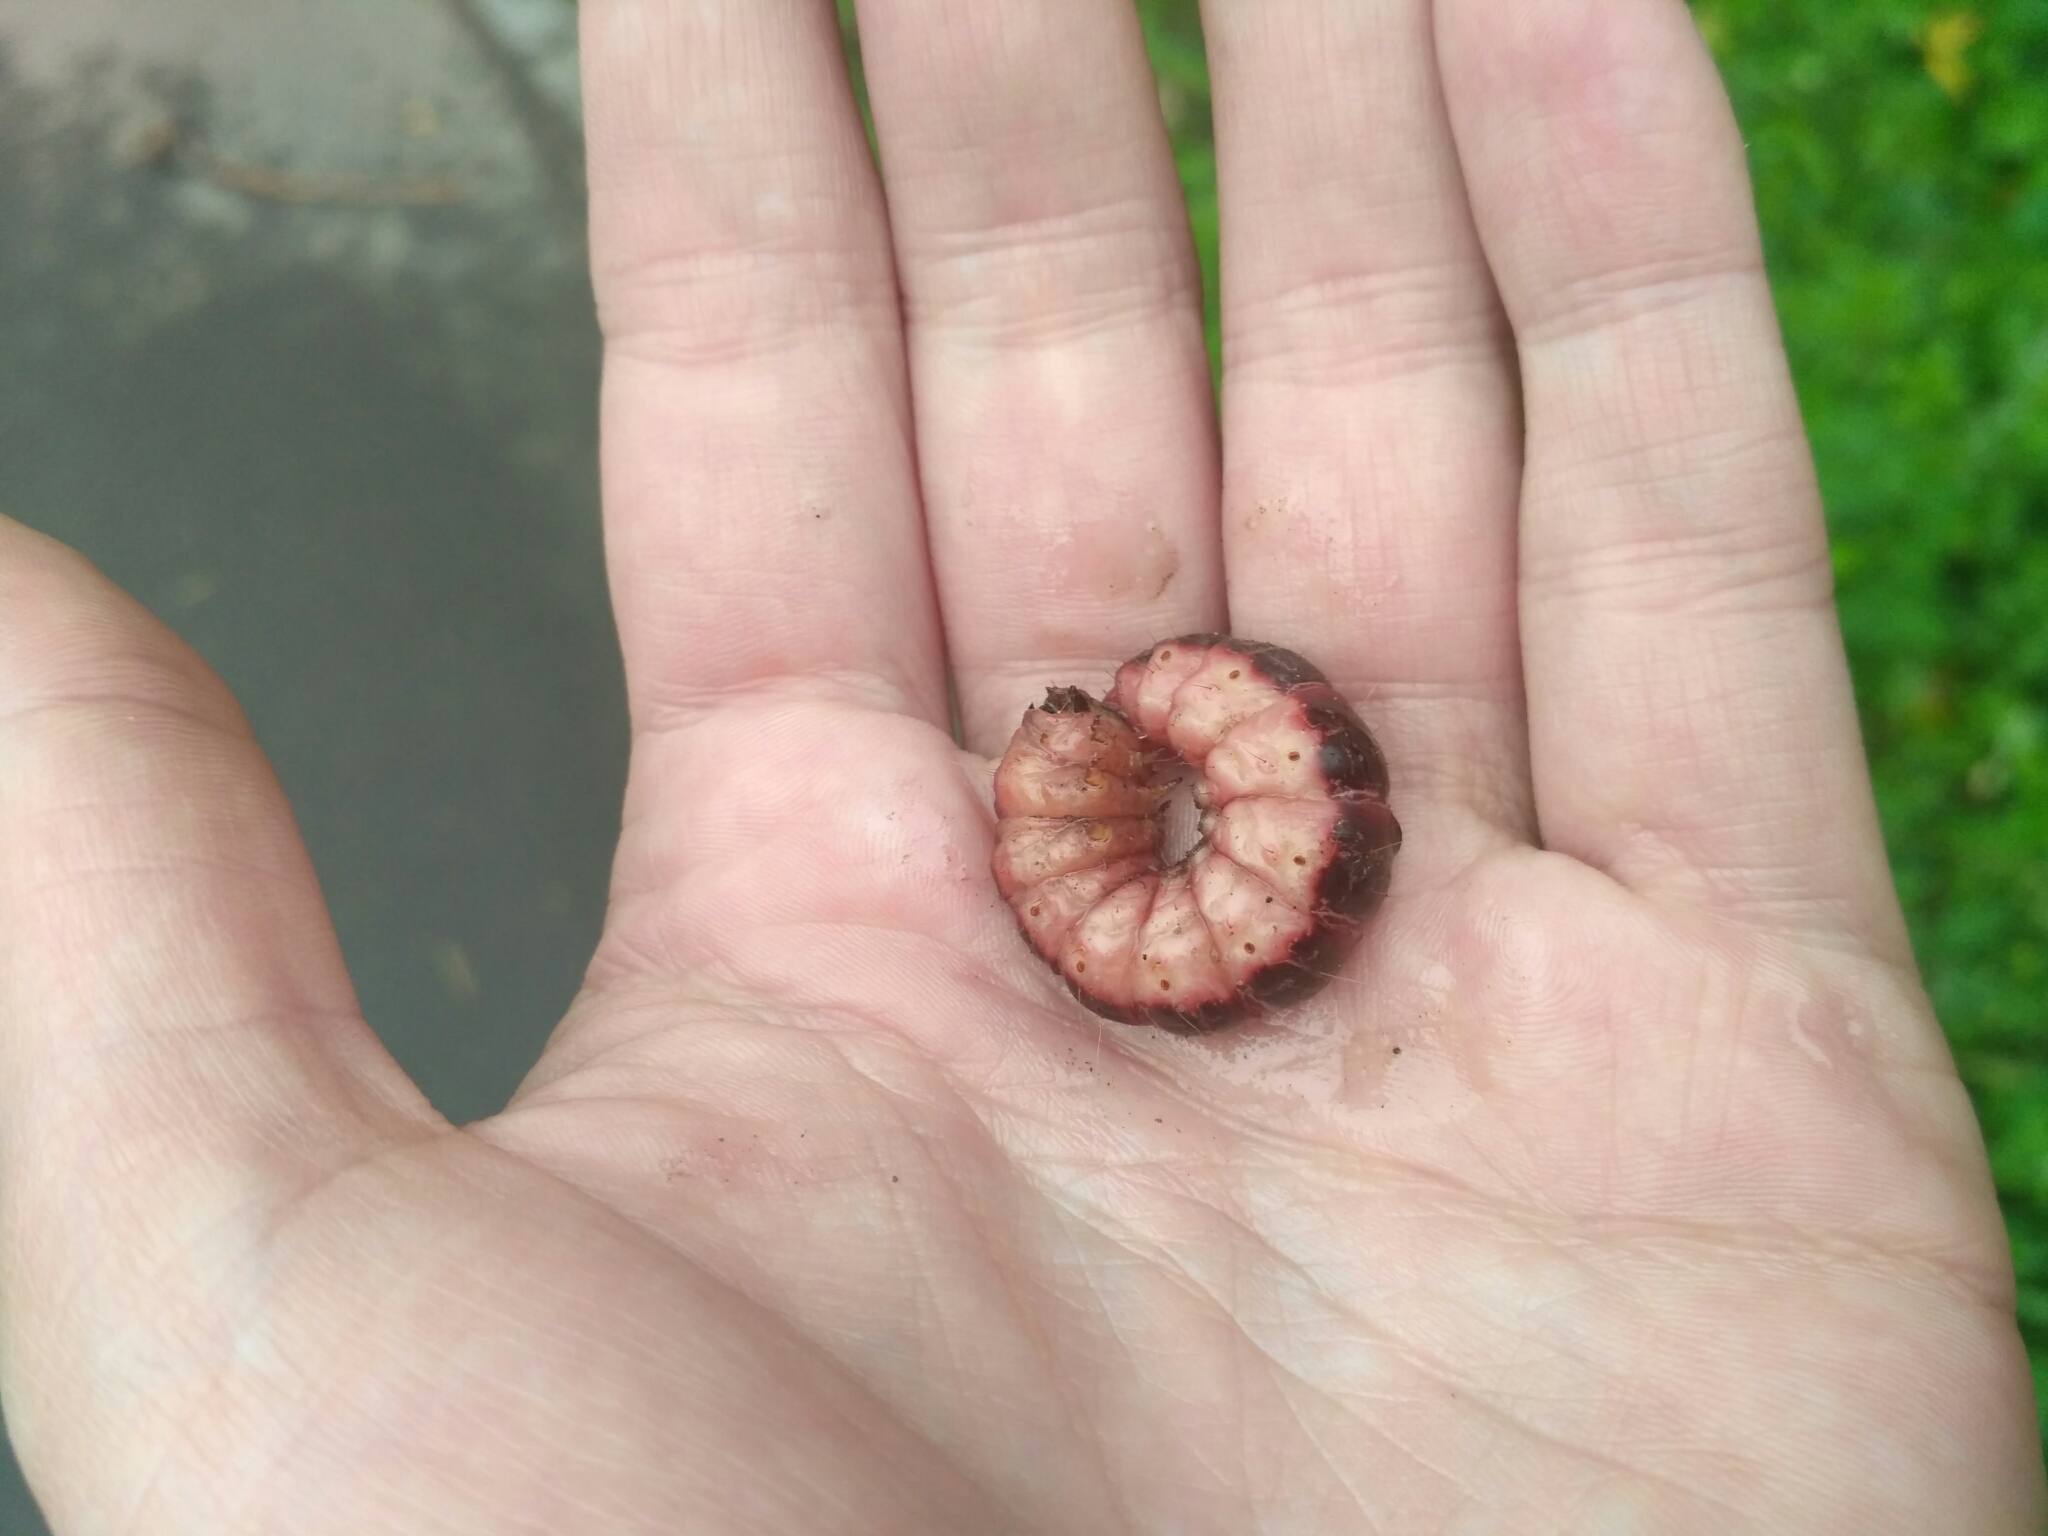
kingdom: Animalia
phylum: Arthropoda
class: Insecta
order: Lepidoptera
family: Cossidae
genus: Cossus
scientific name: Cossus cossus
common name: Goat moth
